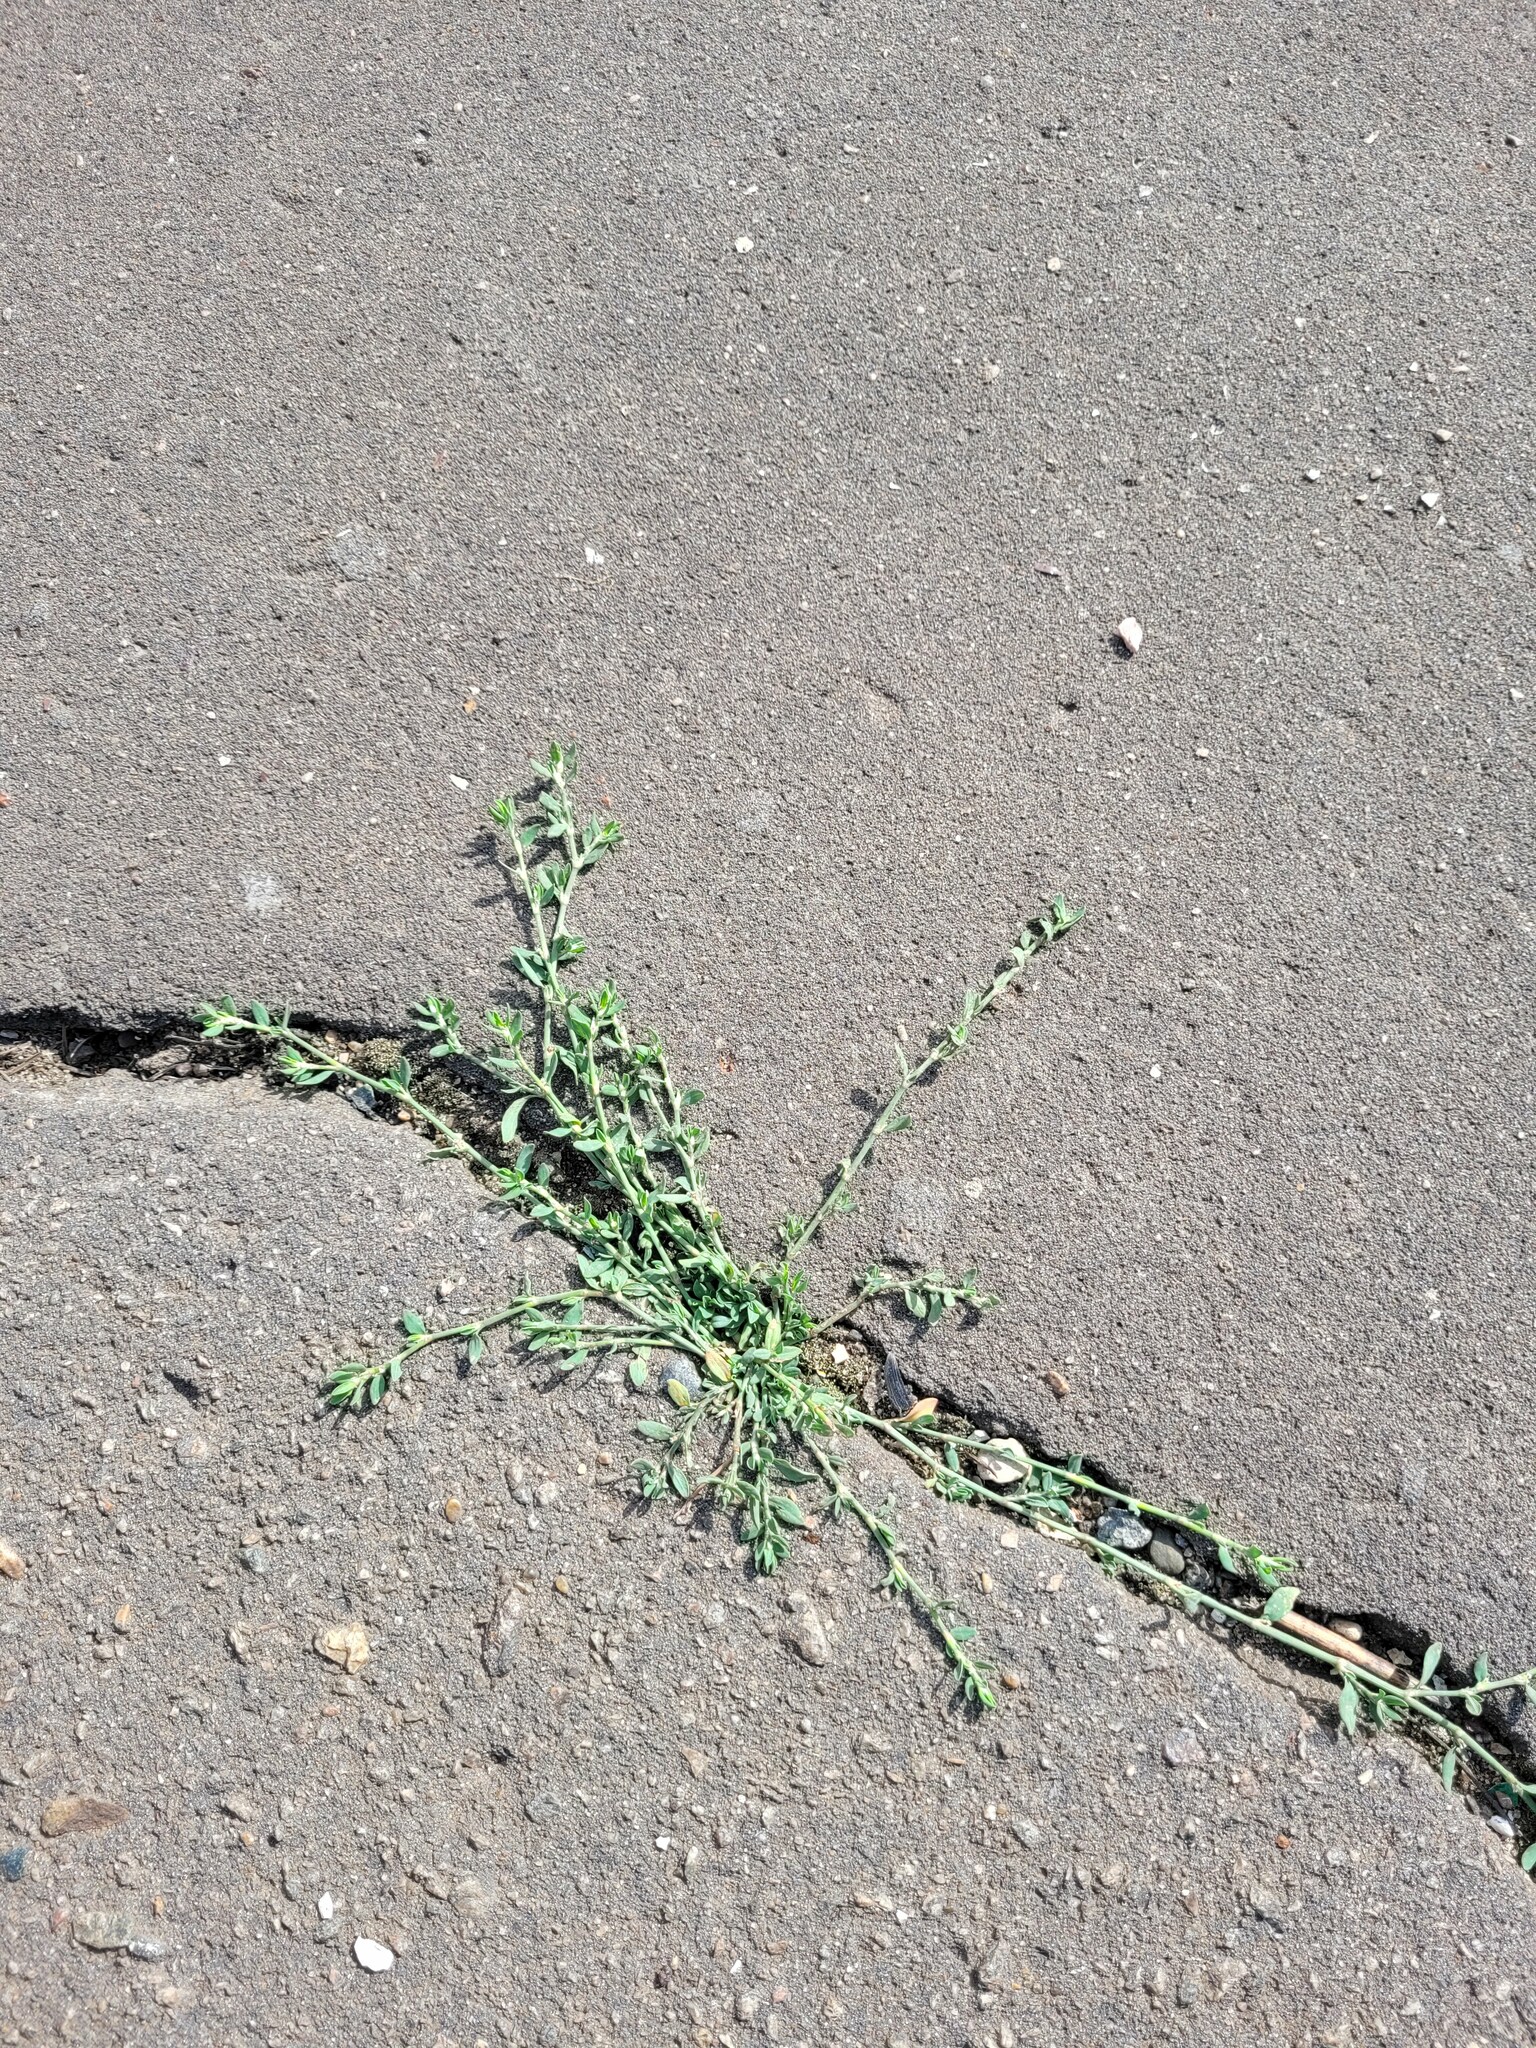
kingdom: Plantae
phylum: Tracheophyta
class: Magnoliopsida
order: Caryophyllales
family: Polygonaceae
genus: Polygonum
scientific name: Polygonum
